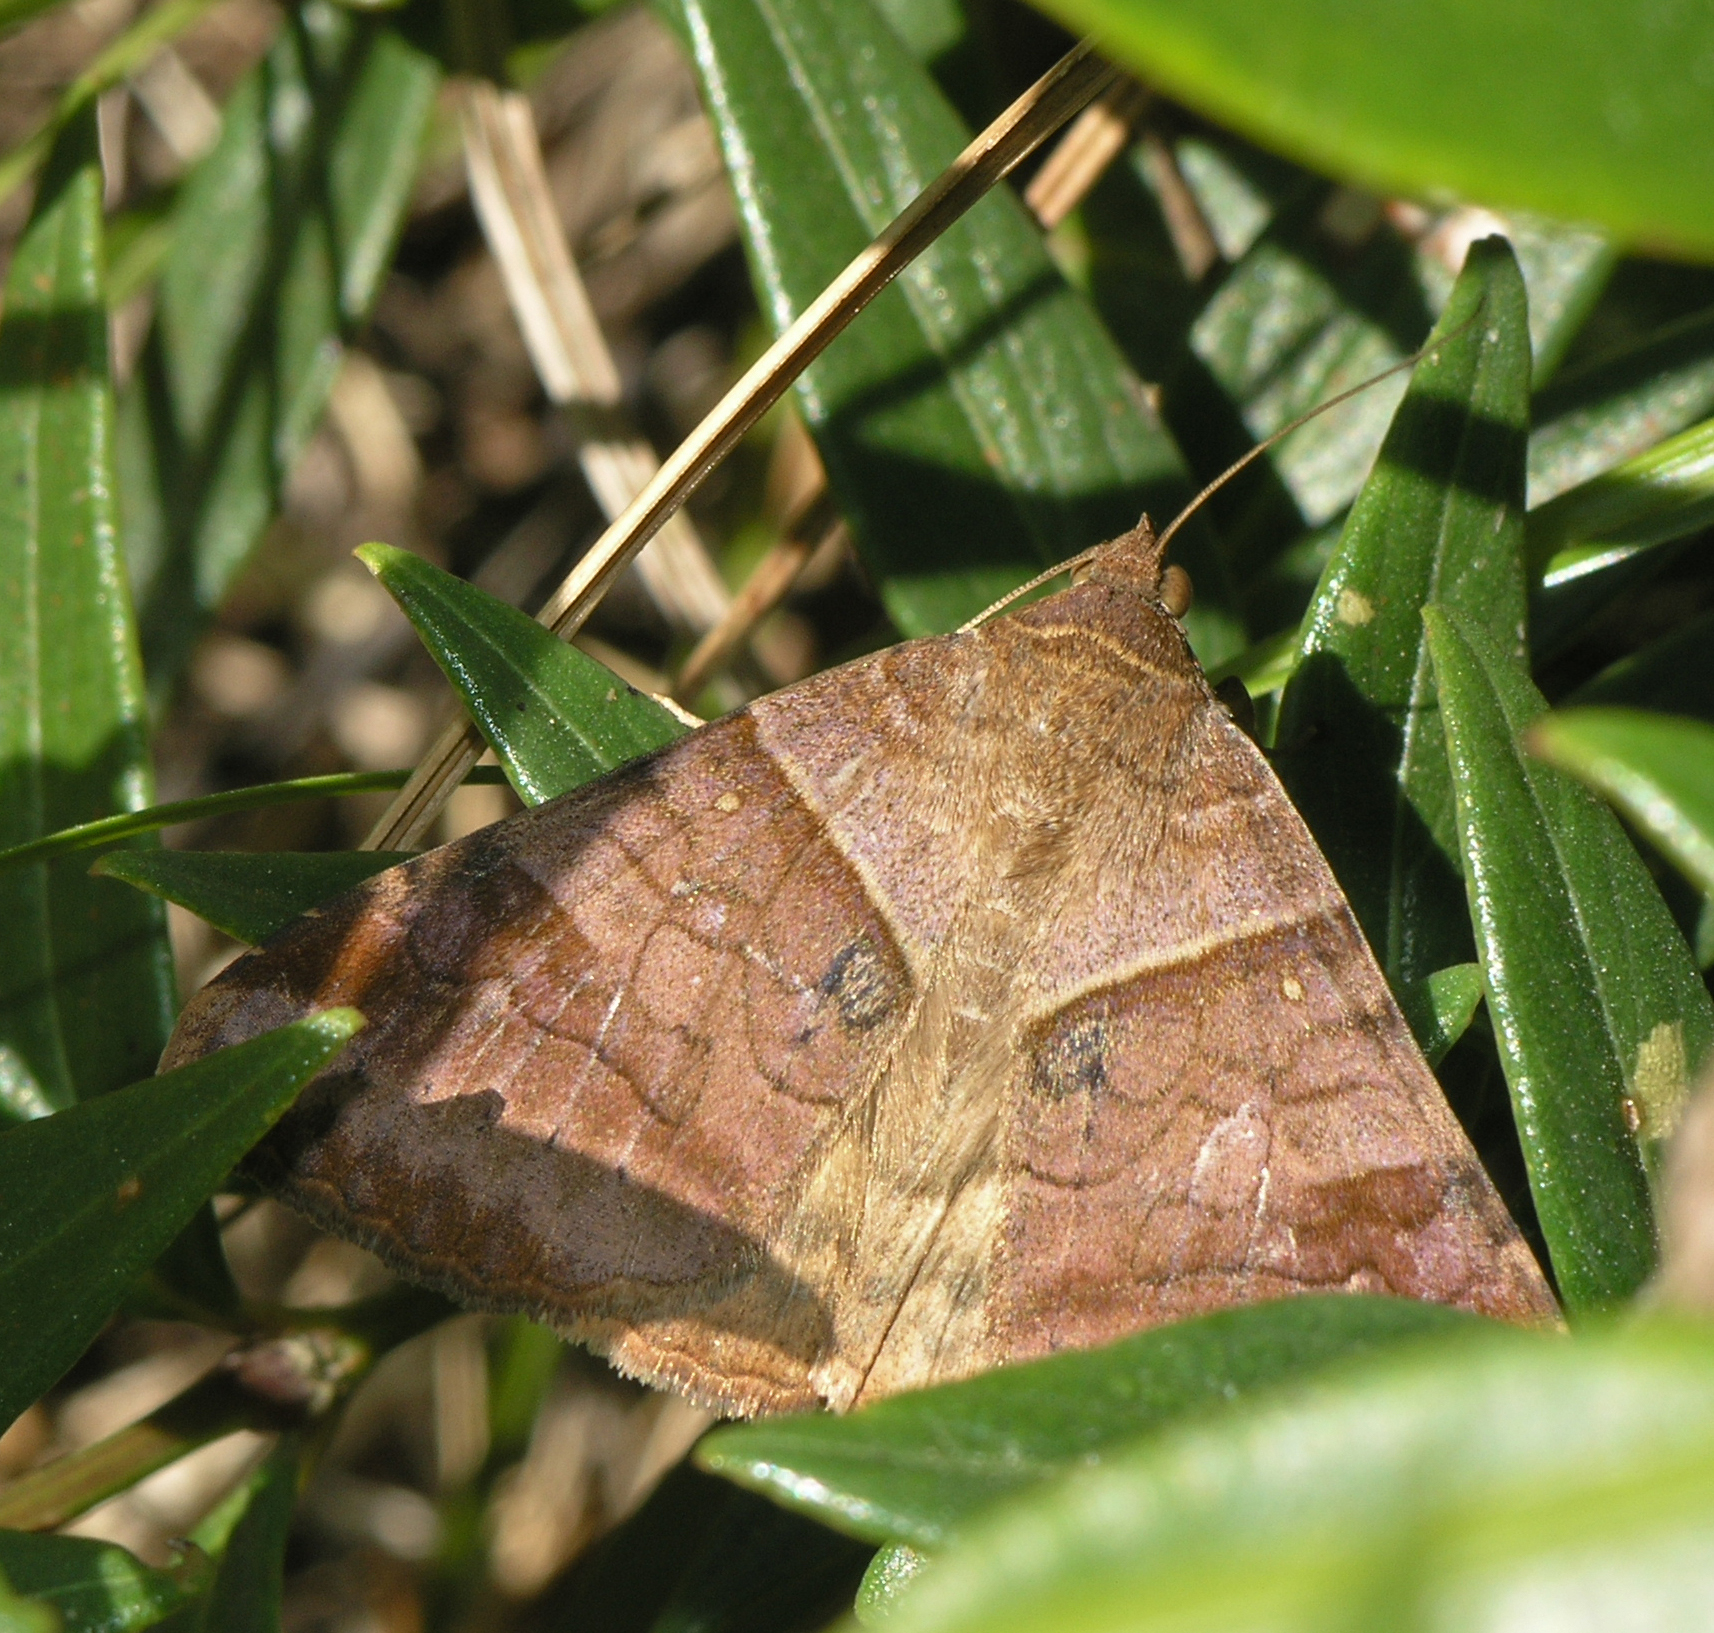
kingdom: Animalia
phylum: Arthropoda
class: Insecta
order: Lepidoptera
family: Erebidae
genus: Mocis
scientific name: Mocis undata
